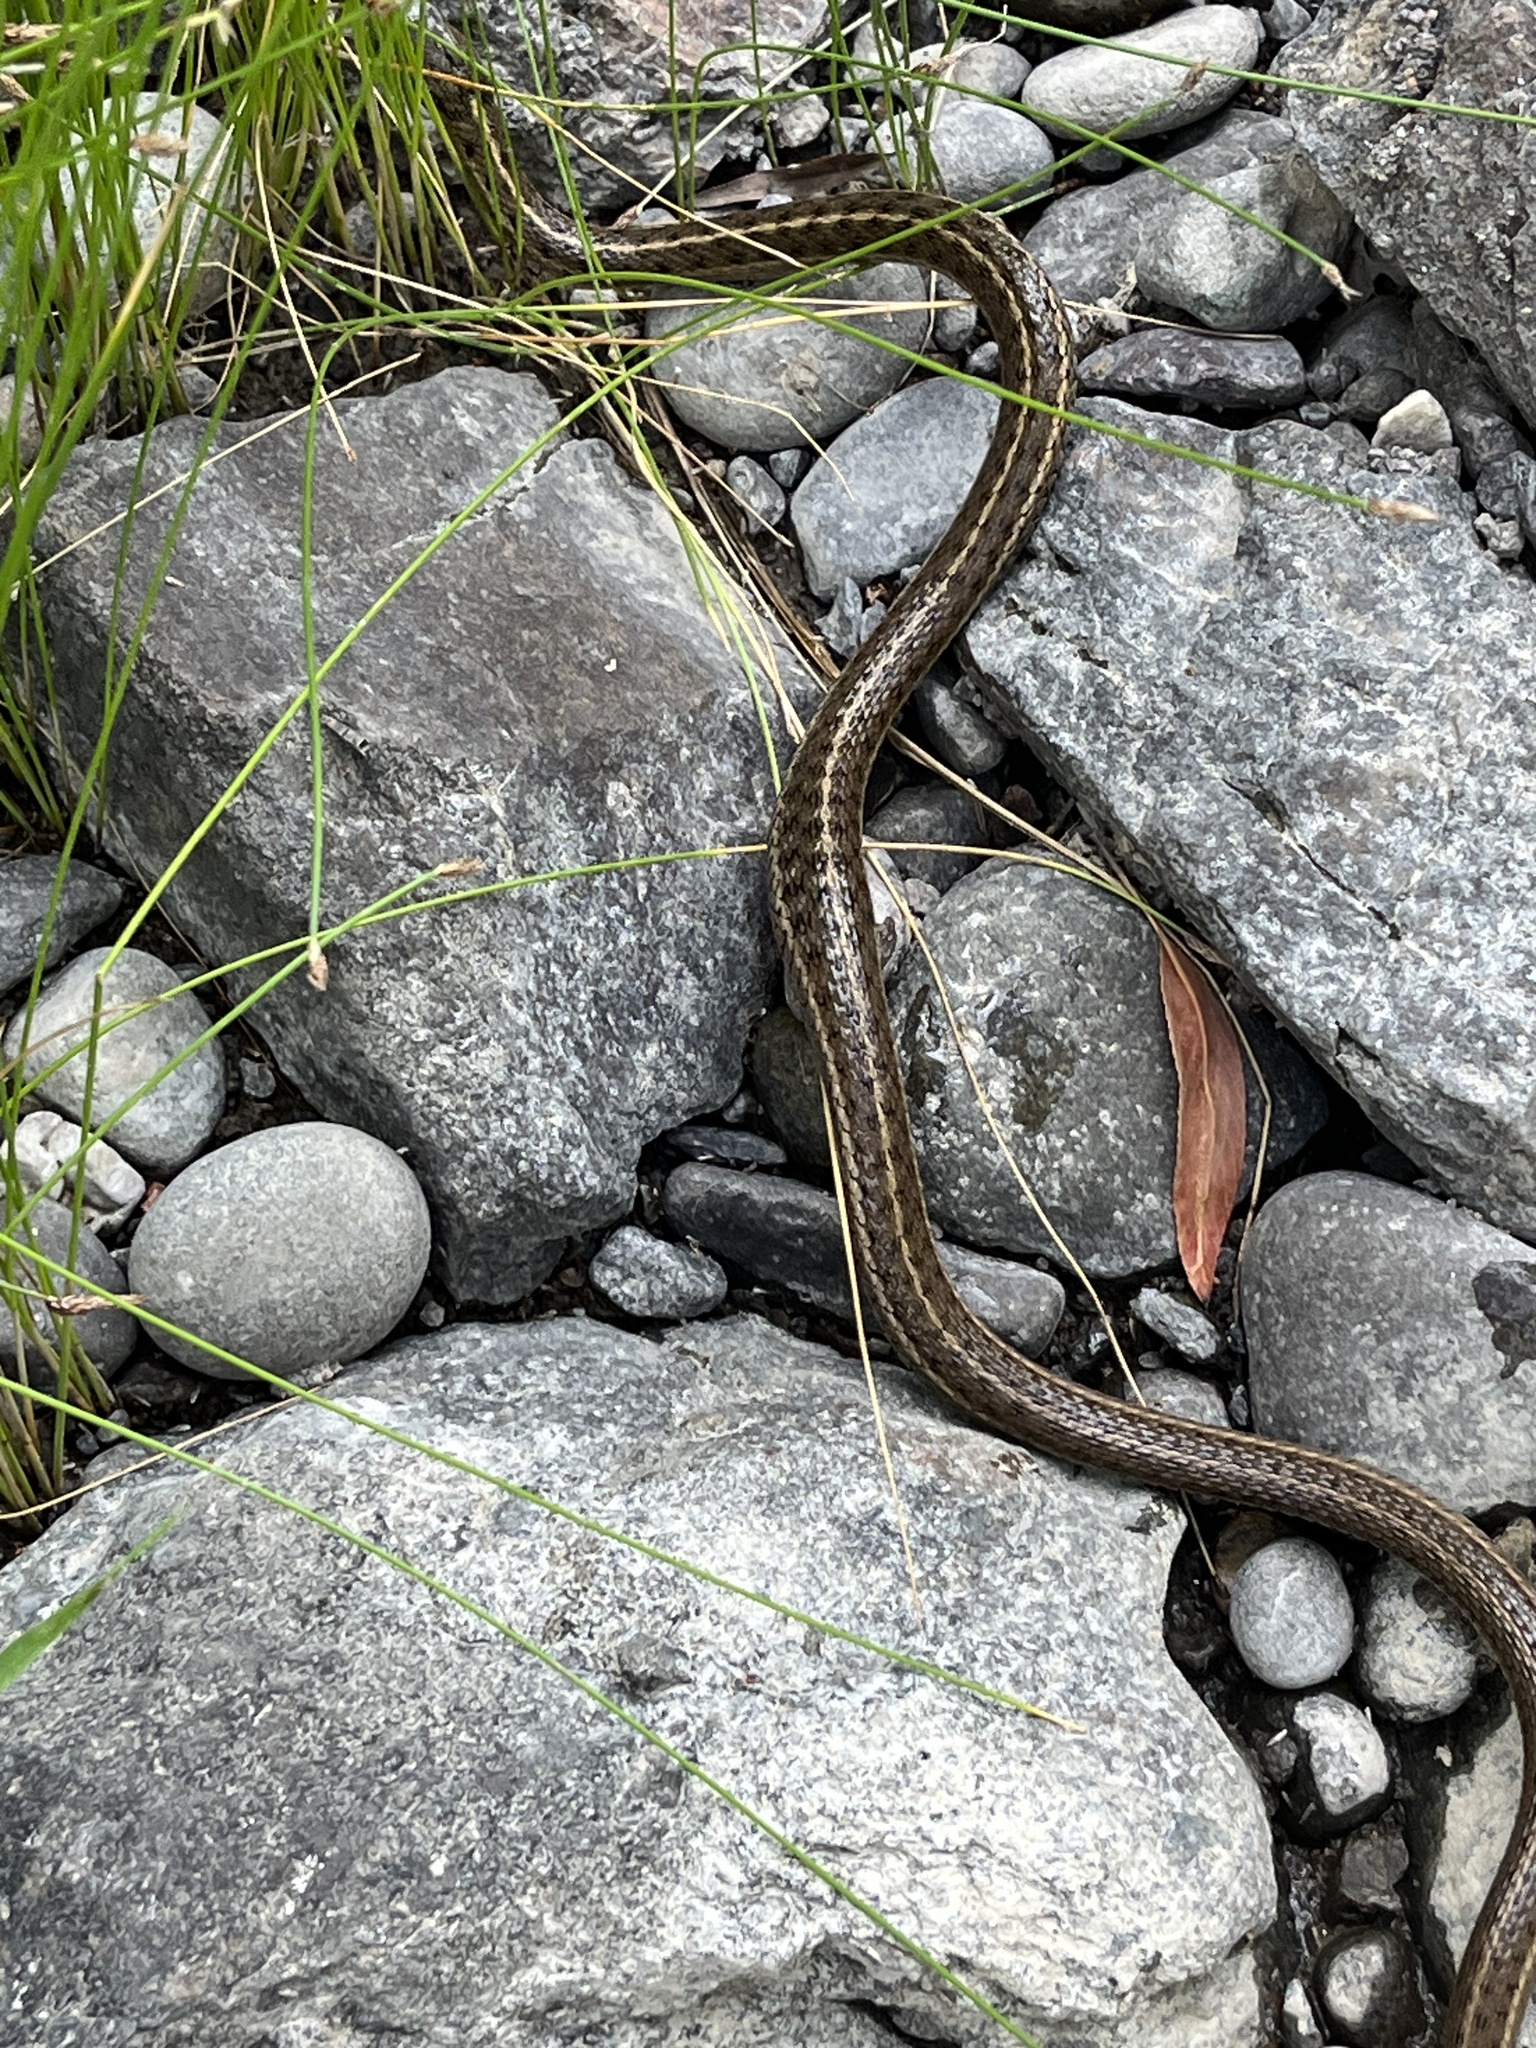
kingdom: Animalia
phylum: Chordata
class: Squamata
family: Colubridae
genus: Thamnophis
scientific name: Thamnophis elegans
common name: Western terrestrial garter snake
